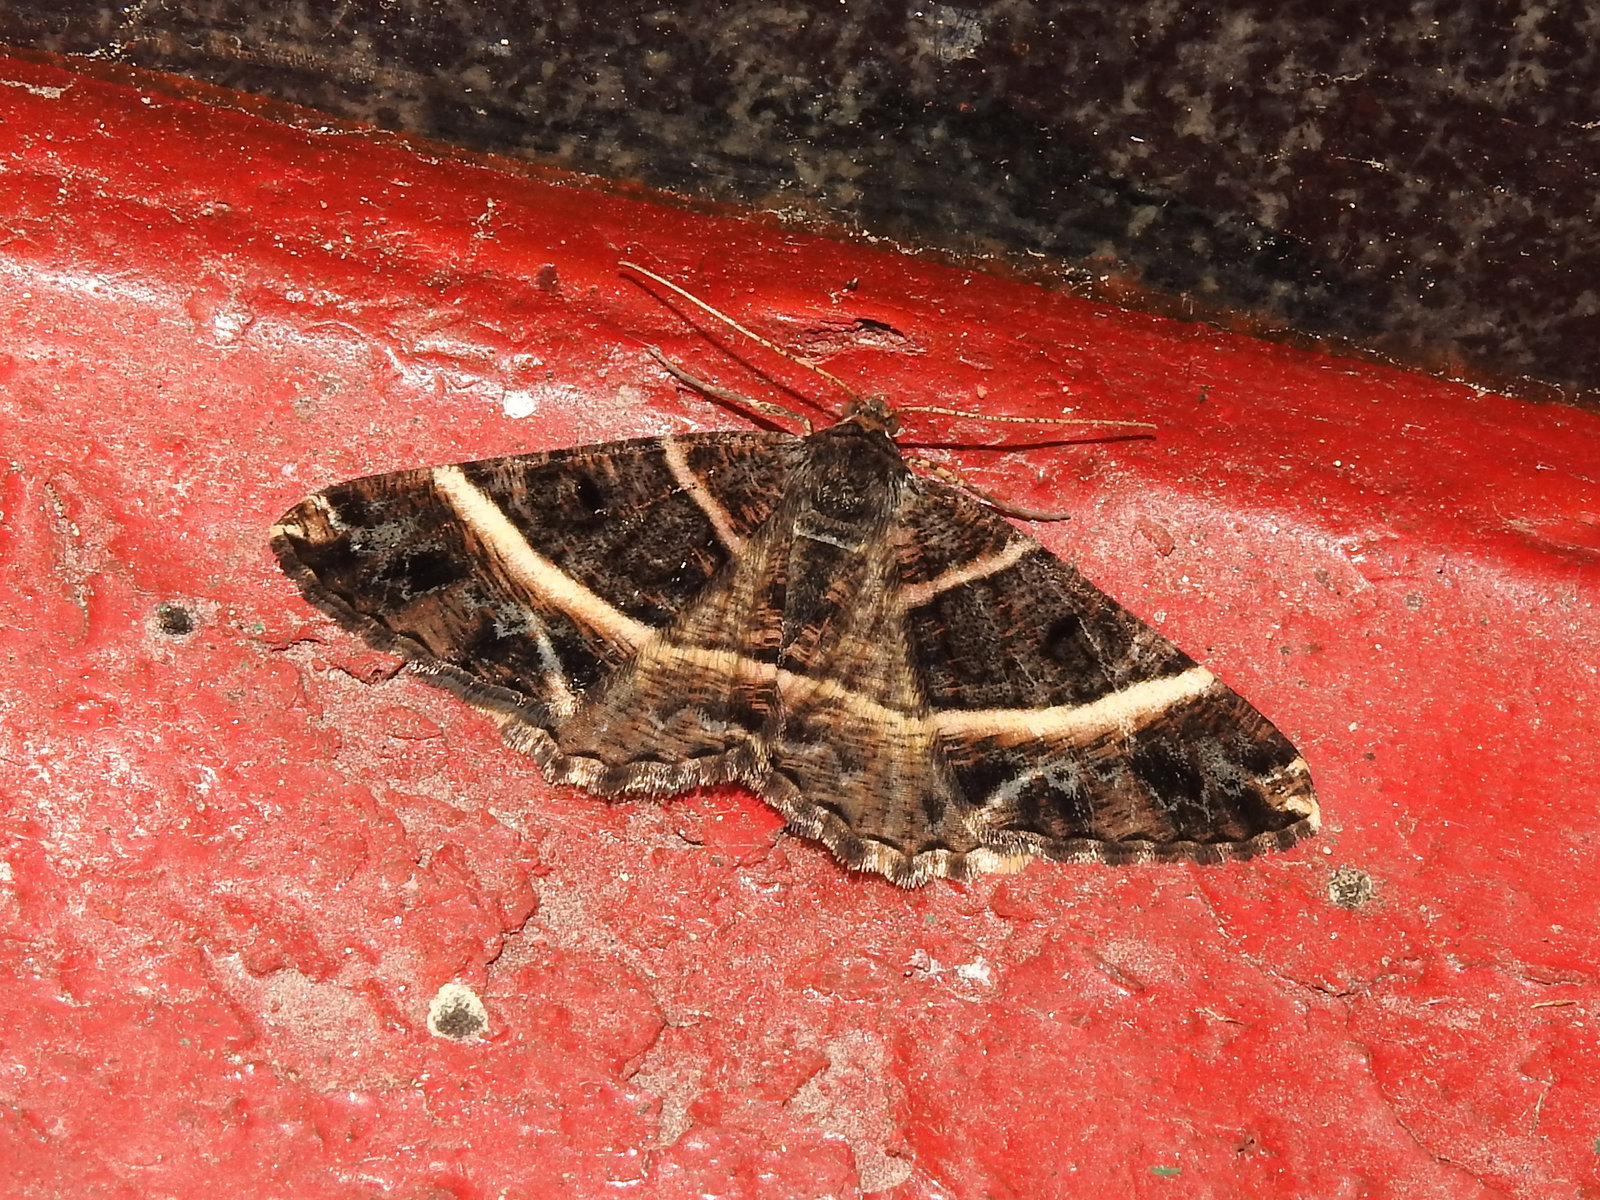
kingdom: Animalia
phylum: Arthropoda
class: Insecta
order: Lepidoptera
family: Geometridae
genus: Harutalcis
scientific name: Harutalcis atrostipata
